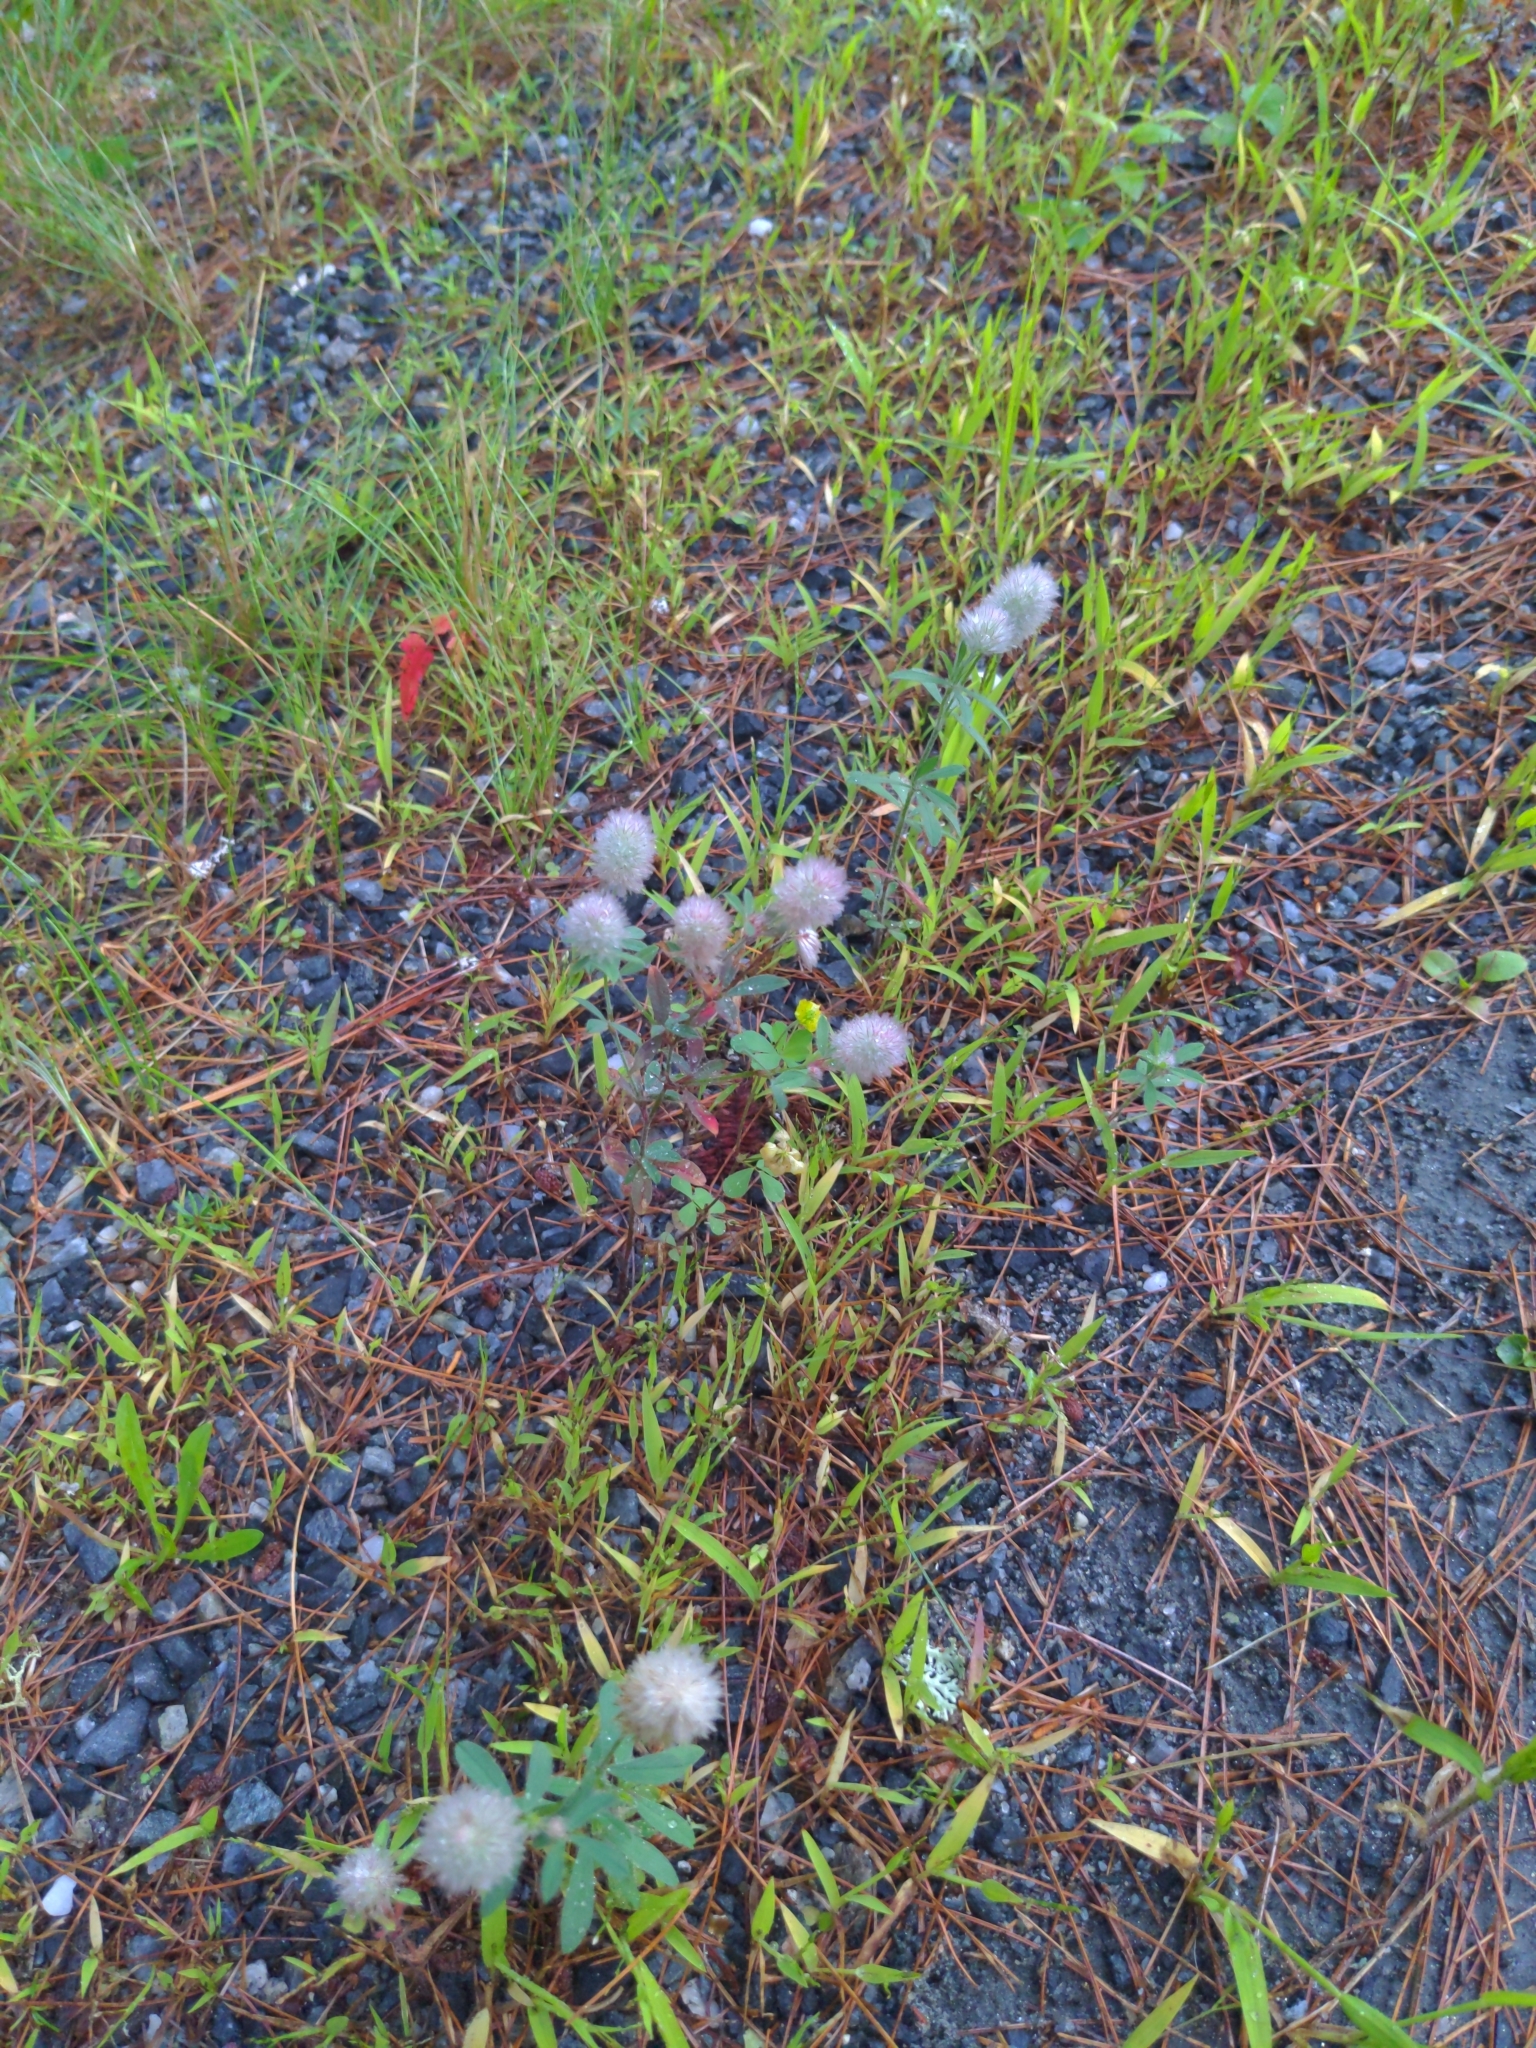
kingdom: Plantae
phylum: Tracheophyta
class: Magnoliopsida
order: Fabales
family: Fabaceae
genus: Trifolium
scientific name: Trifolium arvense
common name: Hare's-foot clover
